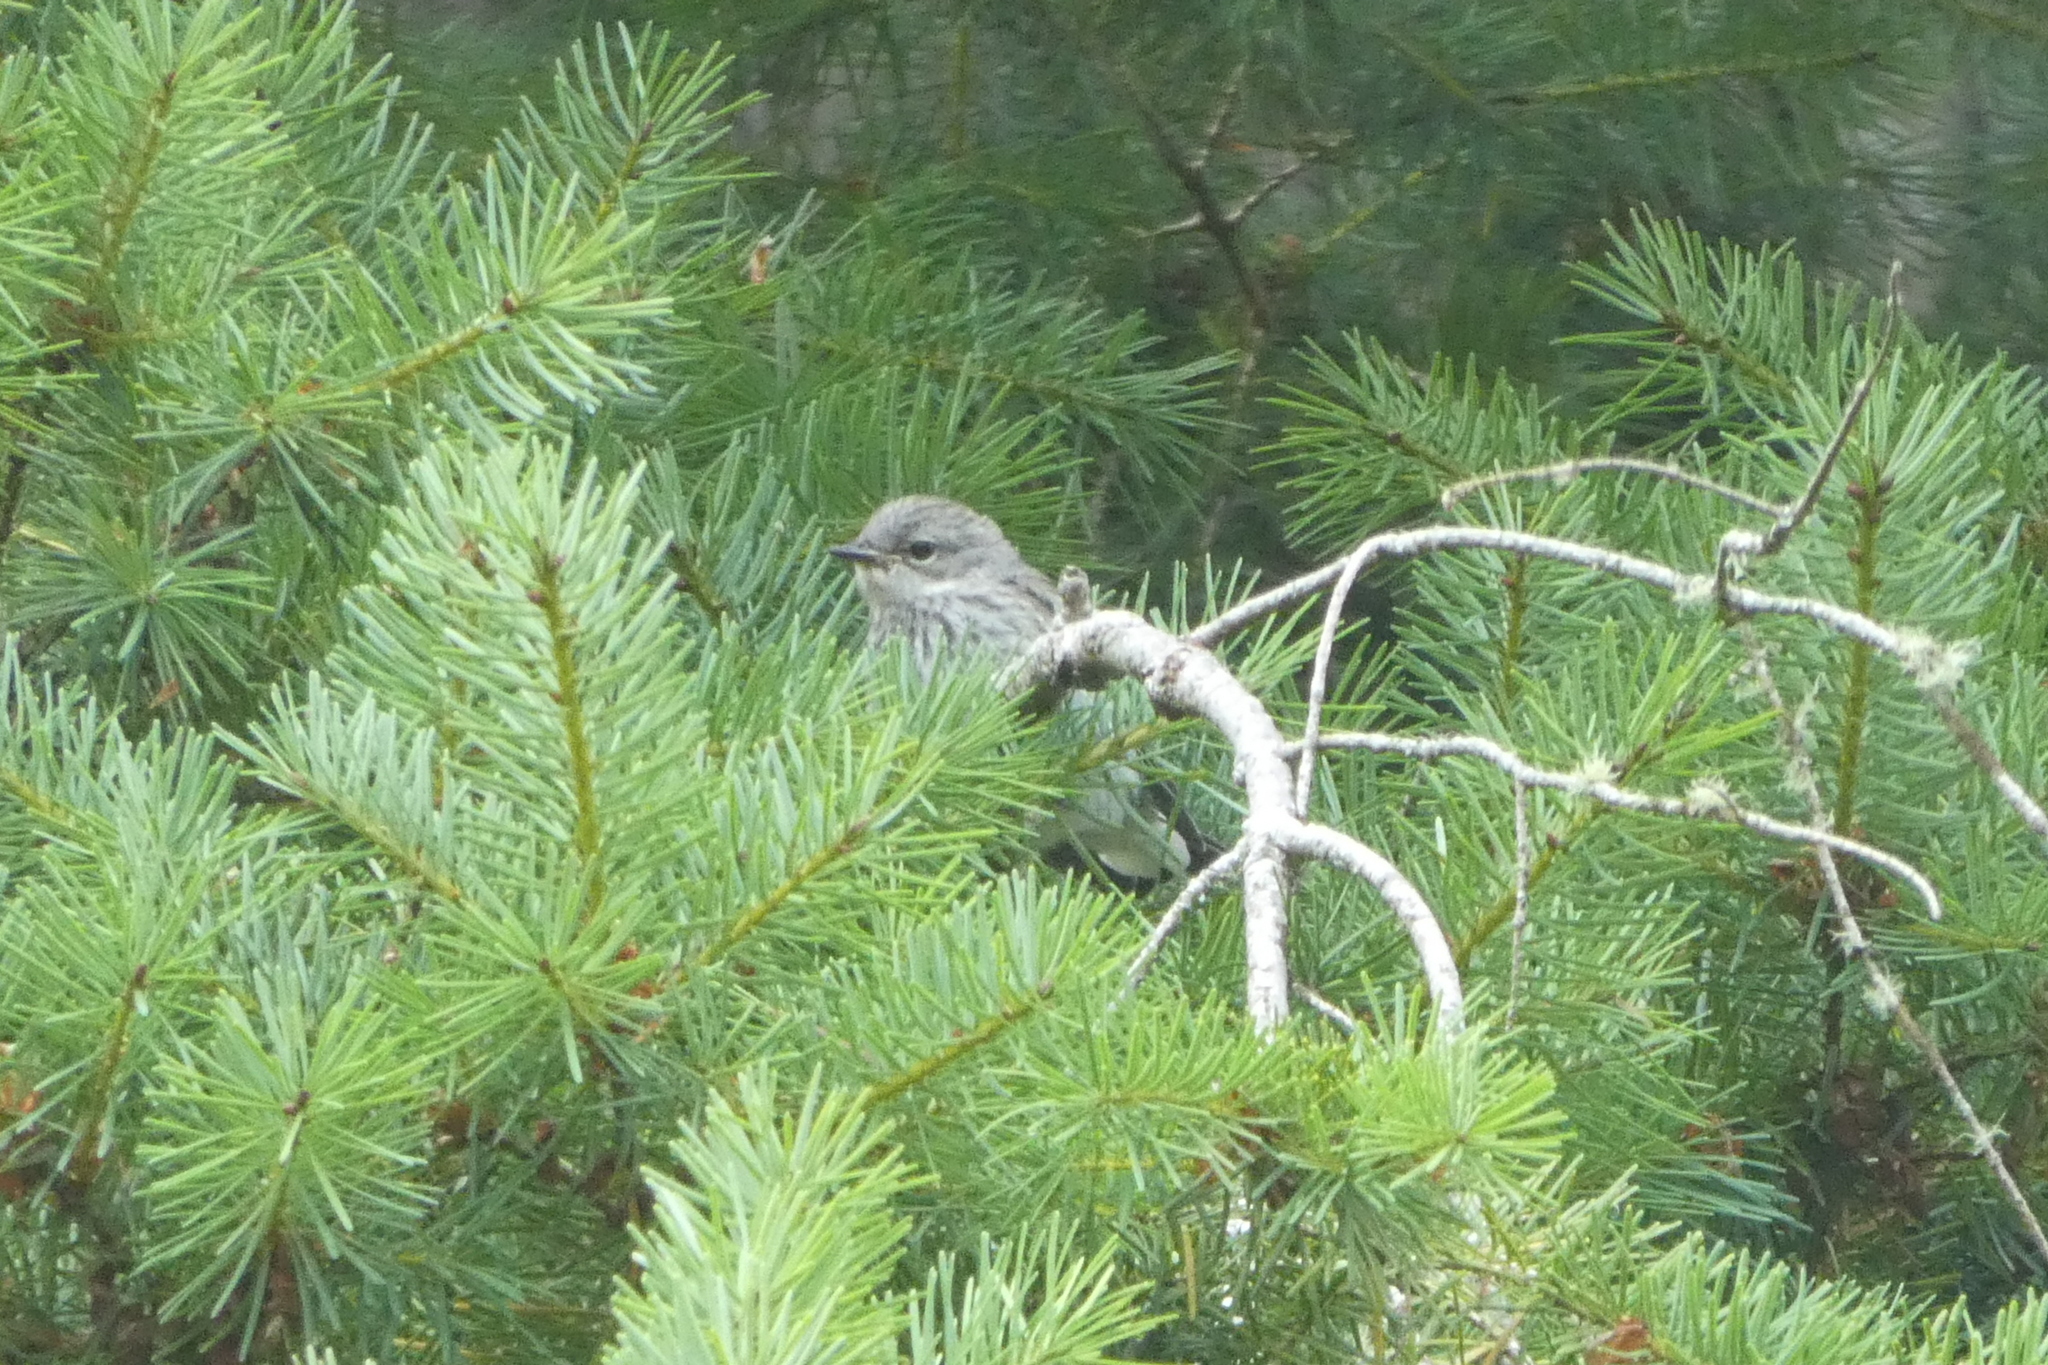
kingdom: Animalia
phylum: Chordata
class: Aves
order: Passeriformes
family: Parulidae
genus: Setophaga
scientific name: Setophaga coronata
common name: Myrtle warbler
